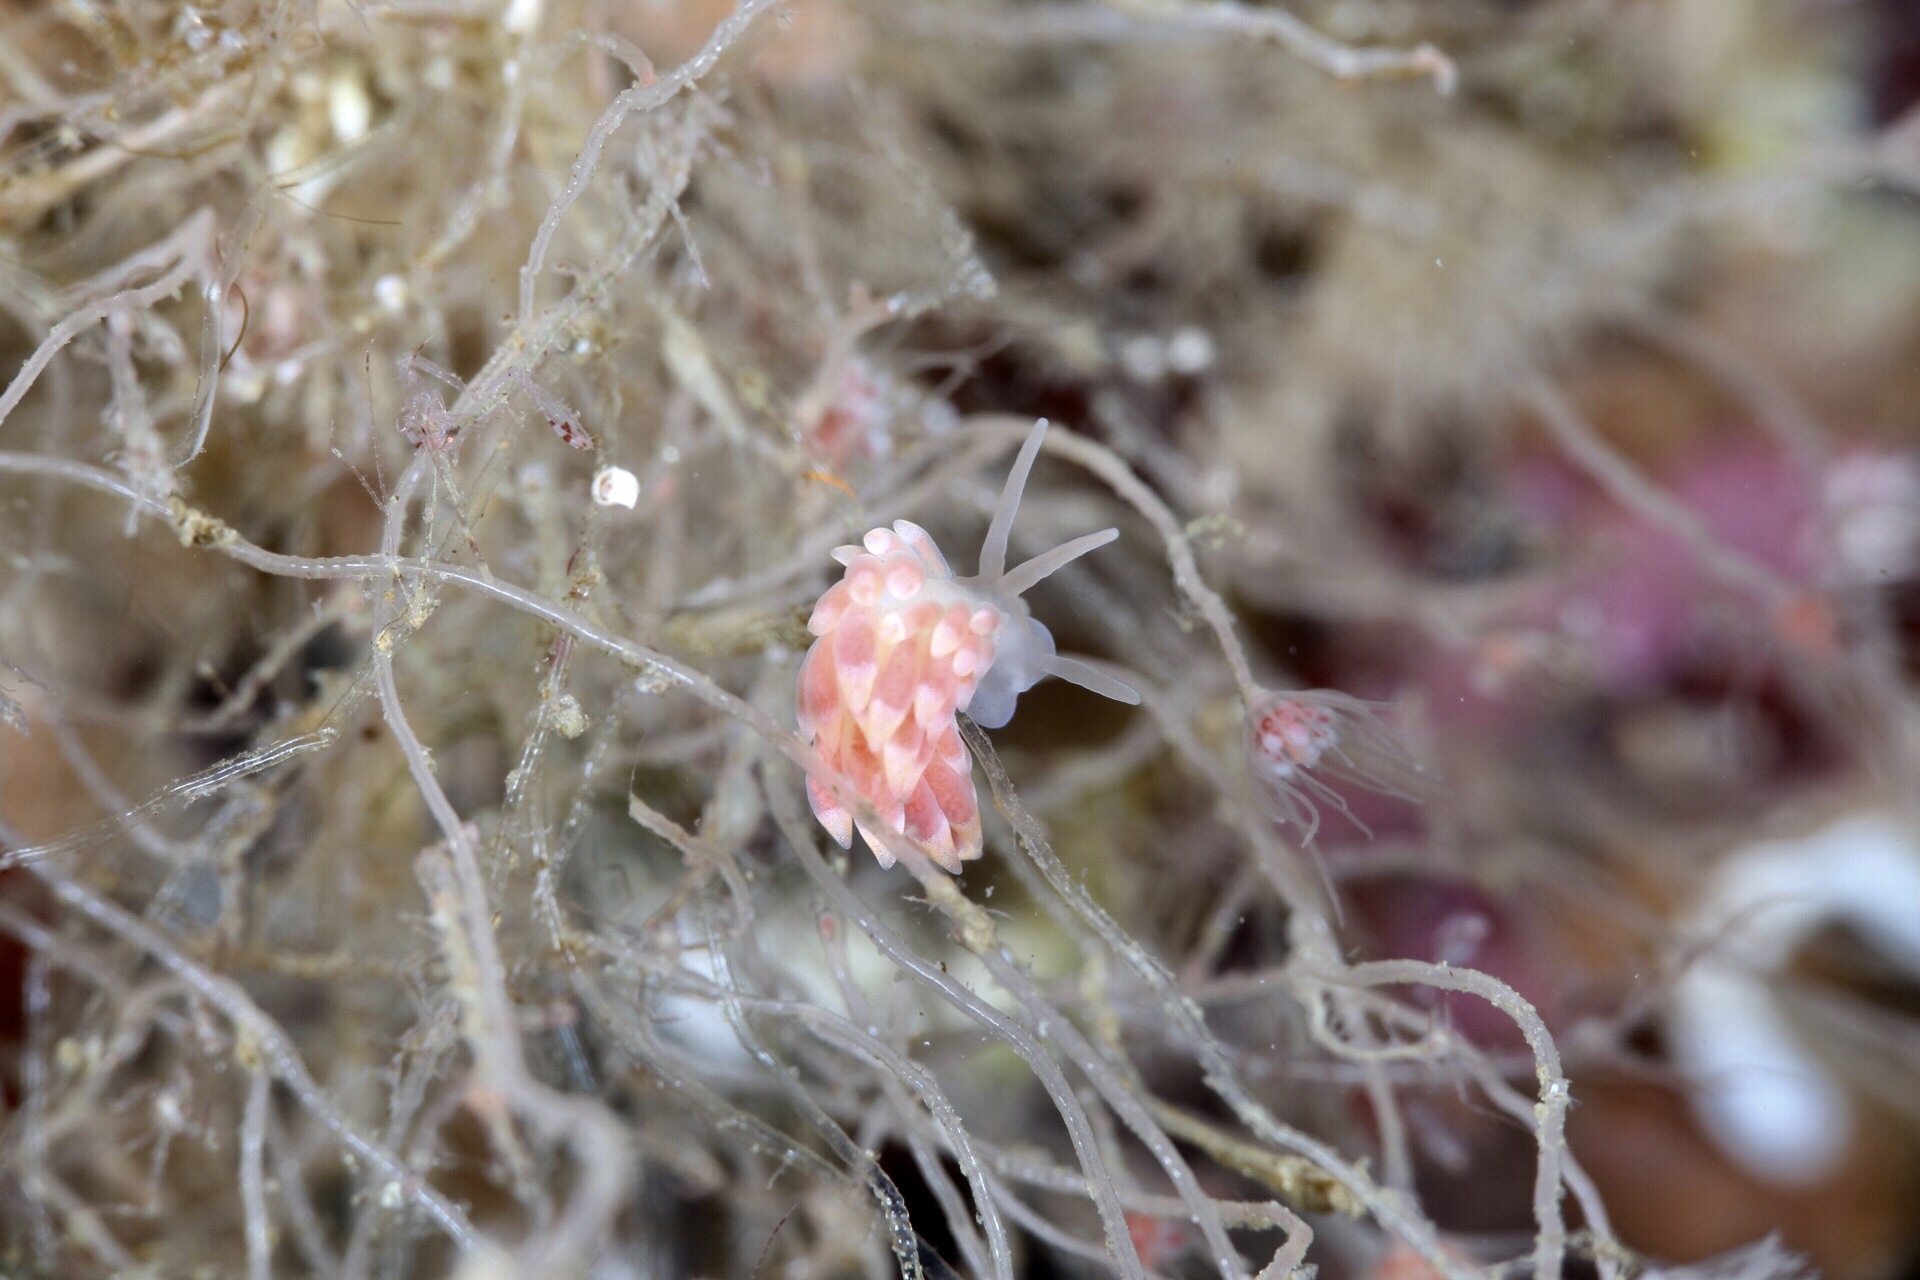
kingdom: Animalia
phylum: Mollusca
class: Gastropoda
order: Nudibranchia
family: Trinchesiidae
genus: Catriona
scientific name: Catriona aurantia
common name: Corange-tip cuthona
